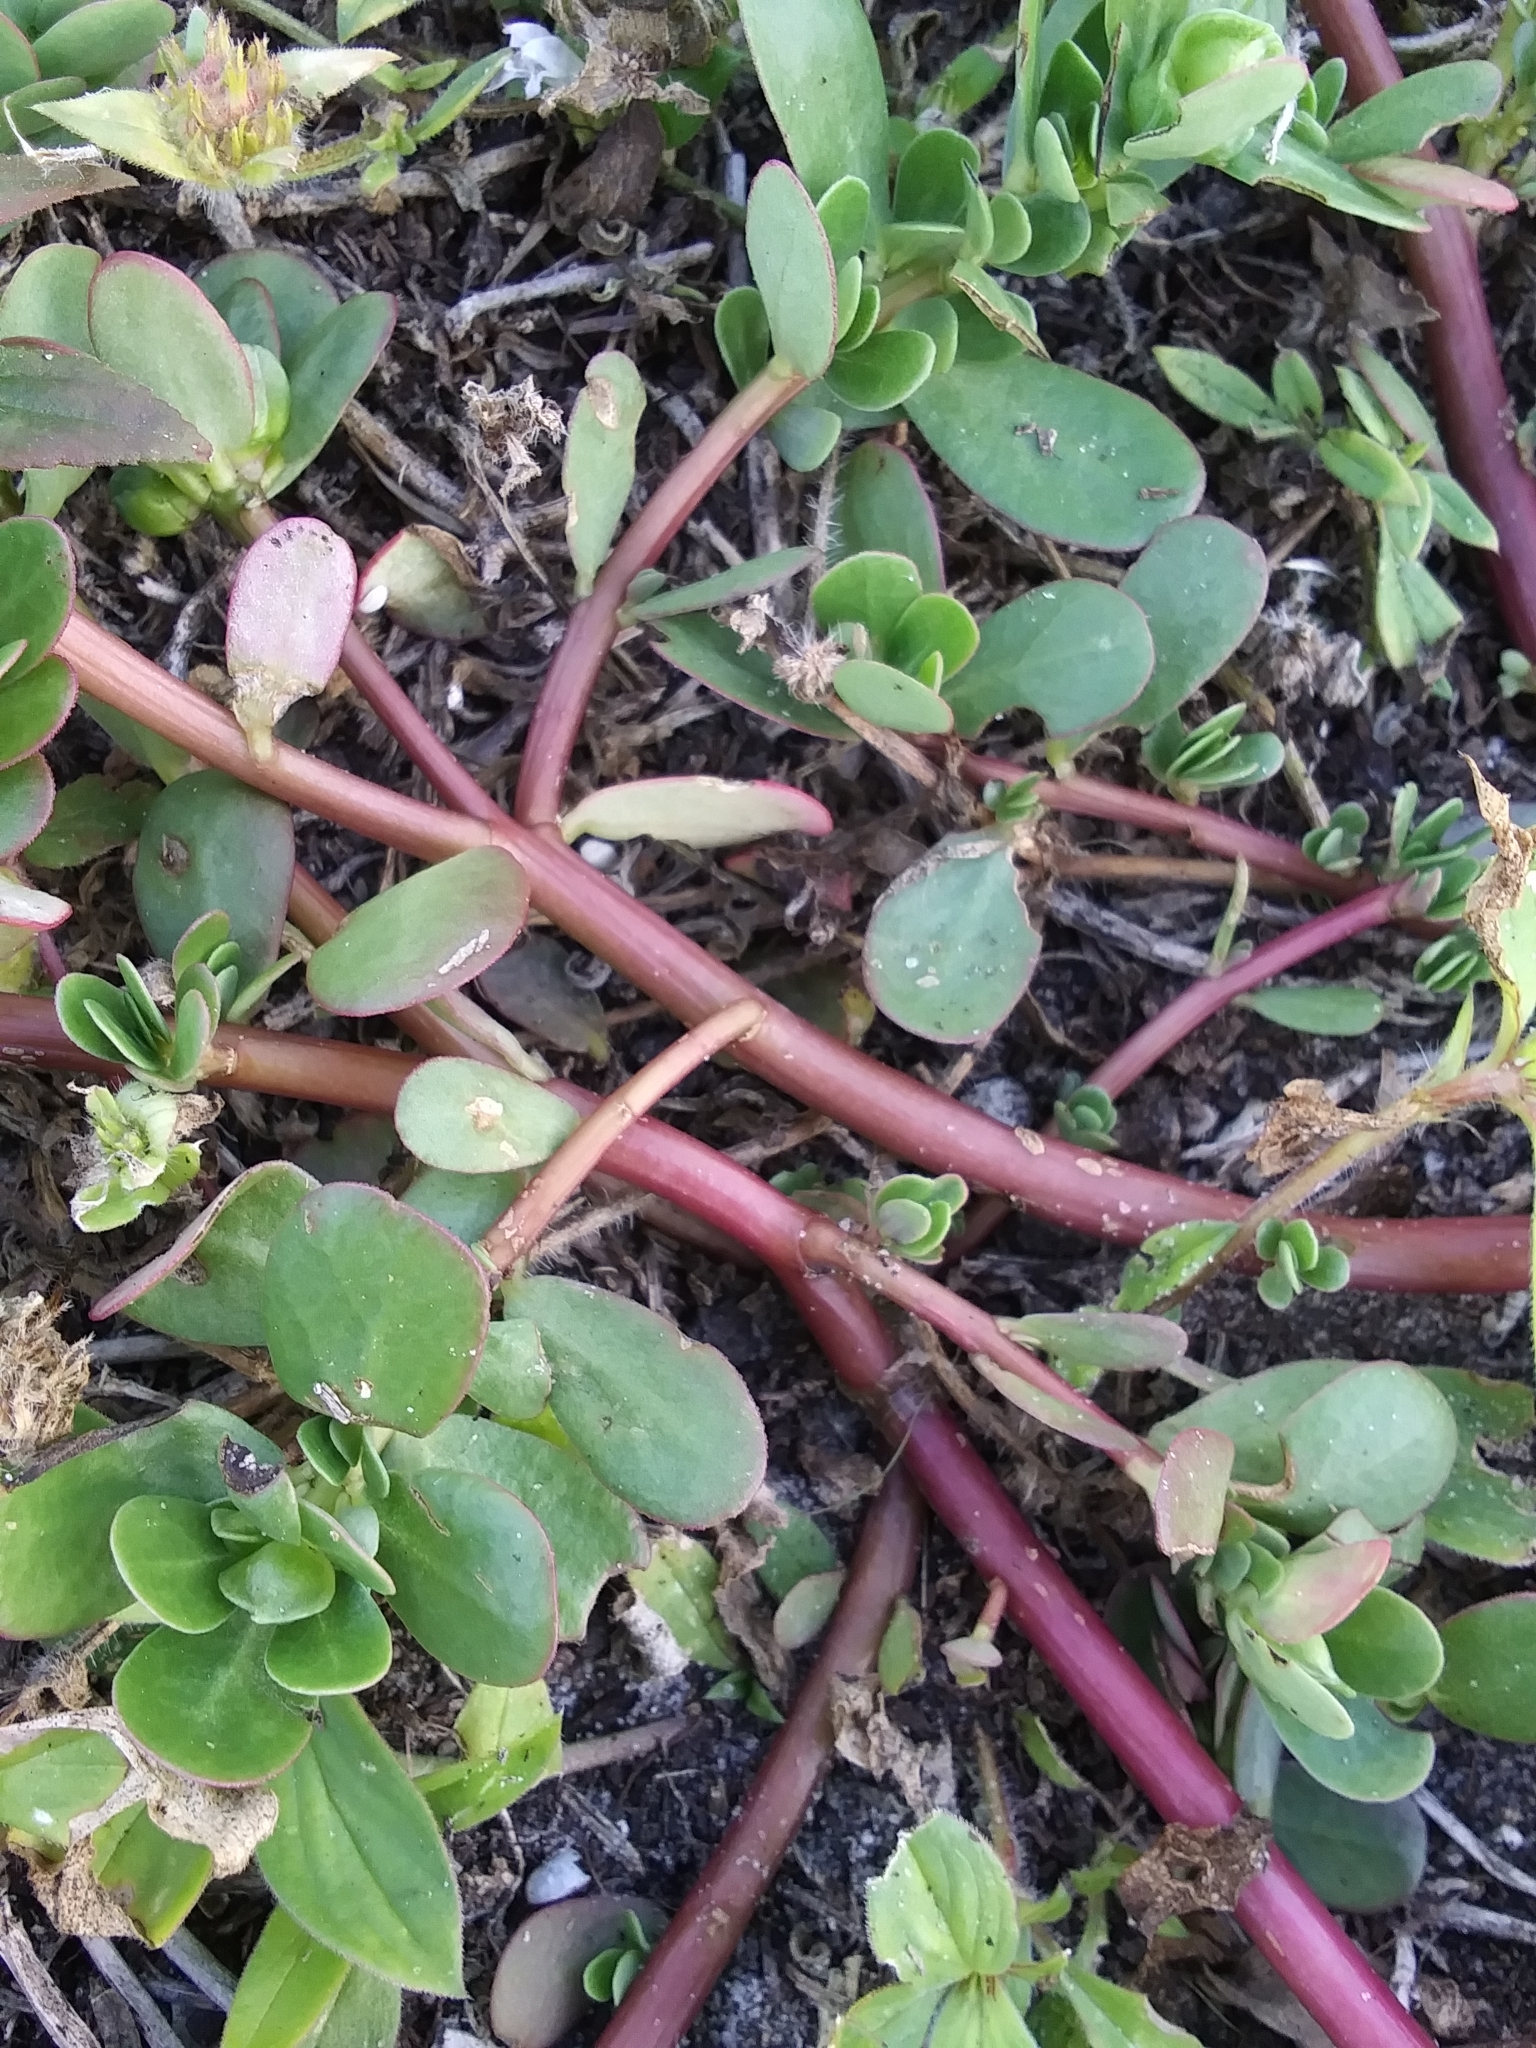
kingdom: Plantae
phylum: Tracheophyta
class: Magnoliopsida
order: Caryophyllales
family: Portulacaceae
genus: Portulaca
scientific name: Portulaca oleracea
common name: Common purslane
